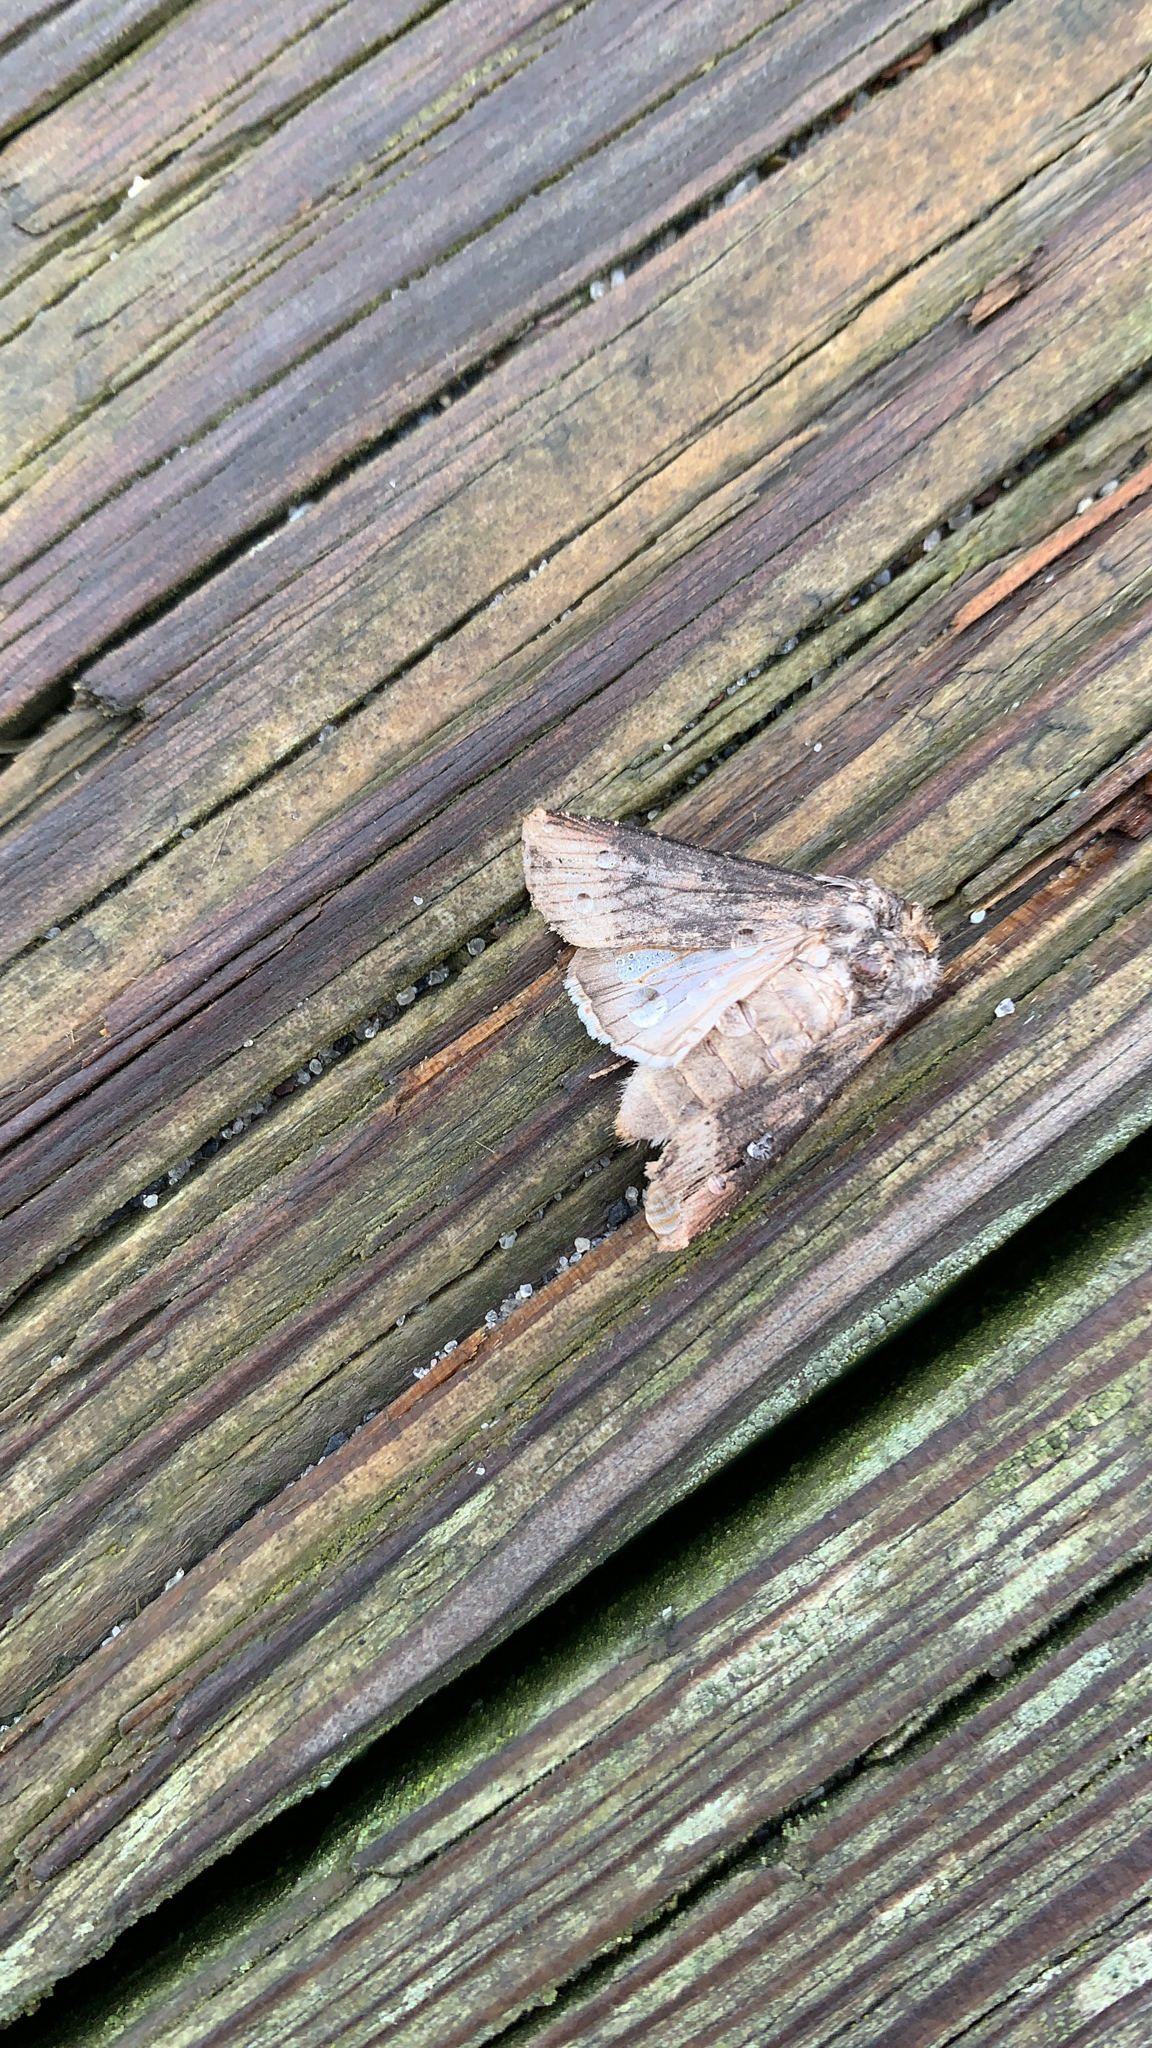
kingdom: Animalia
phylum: Arthropoda
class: Insecta
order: Lepidoptera
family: Noctuidae
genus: Agrotis
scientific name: Agrotis ipsilon
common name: Dark sword-grass
